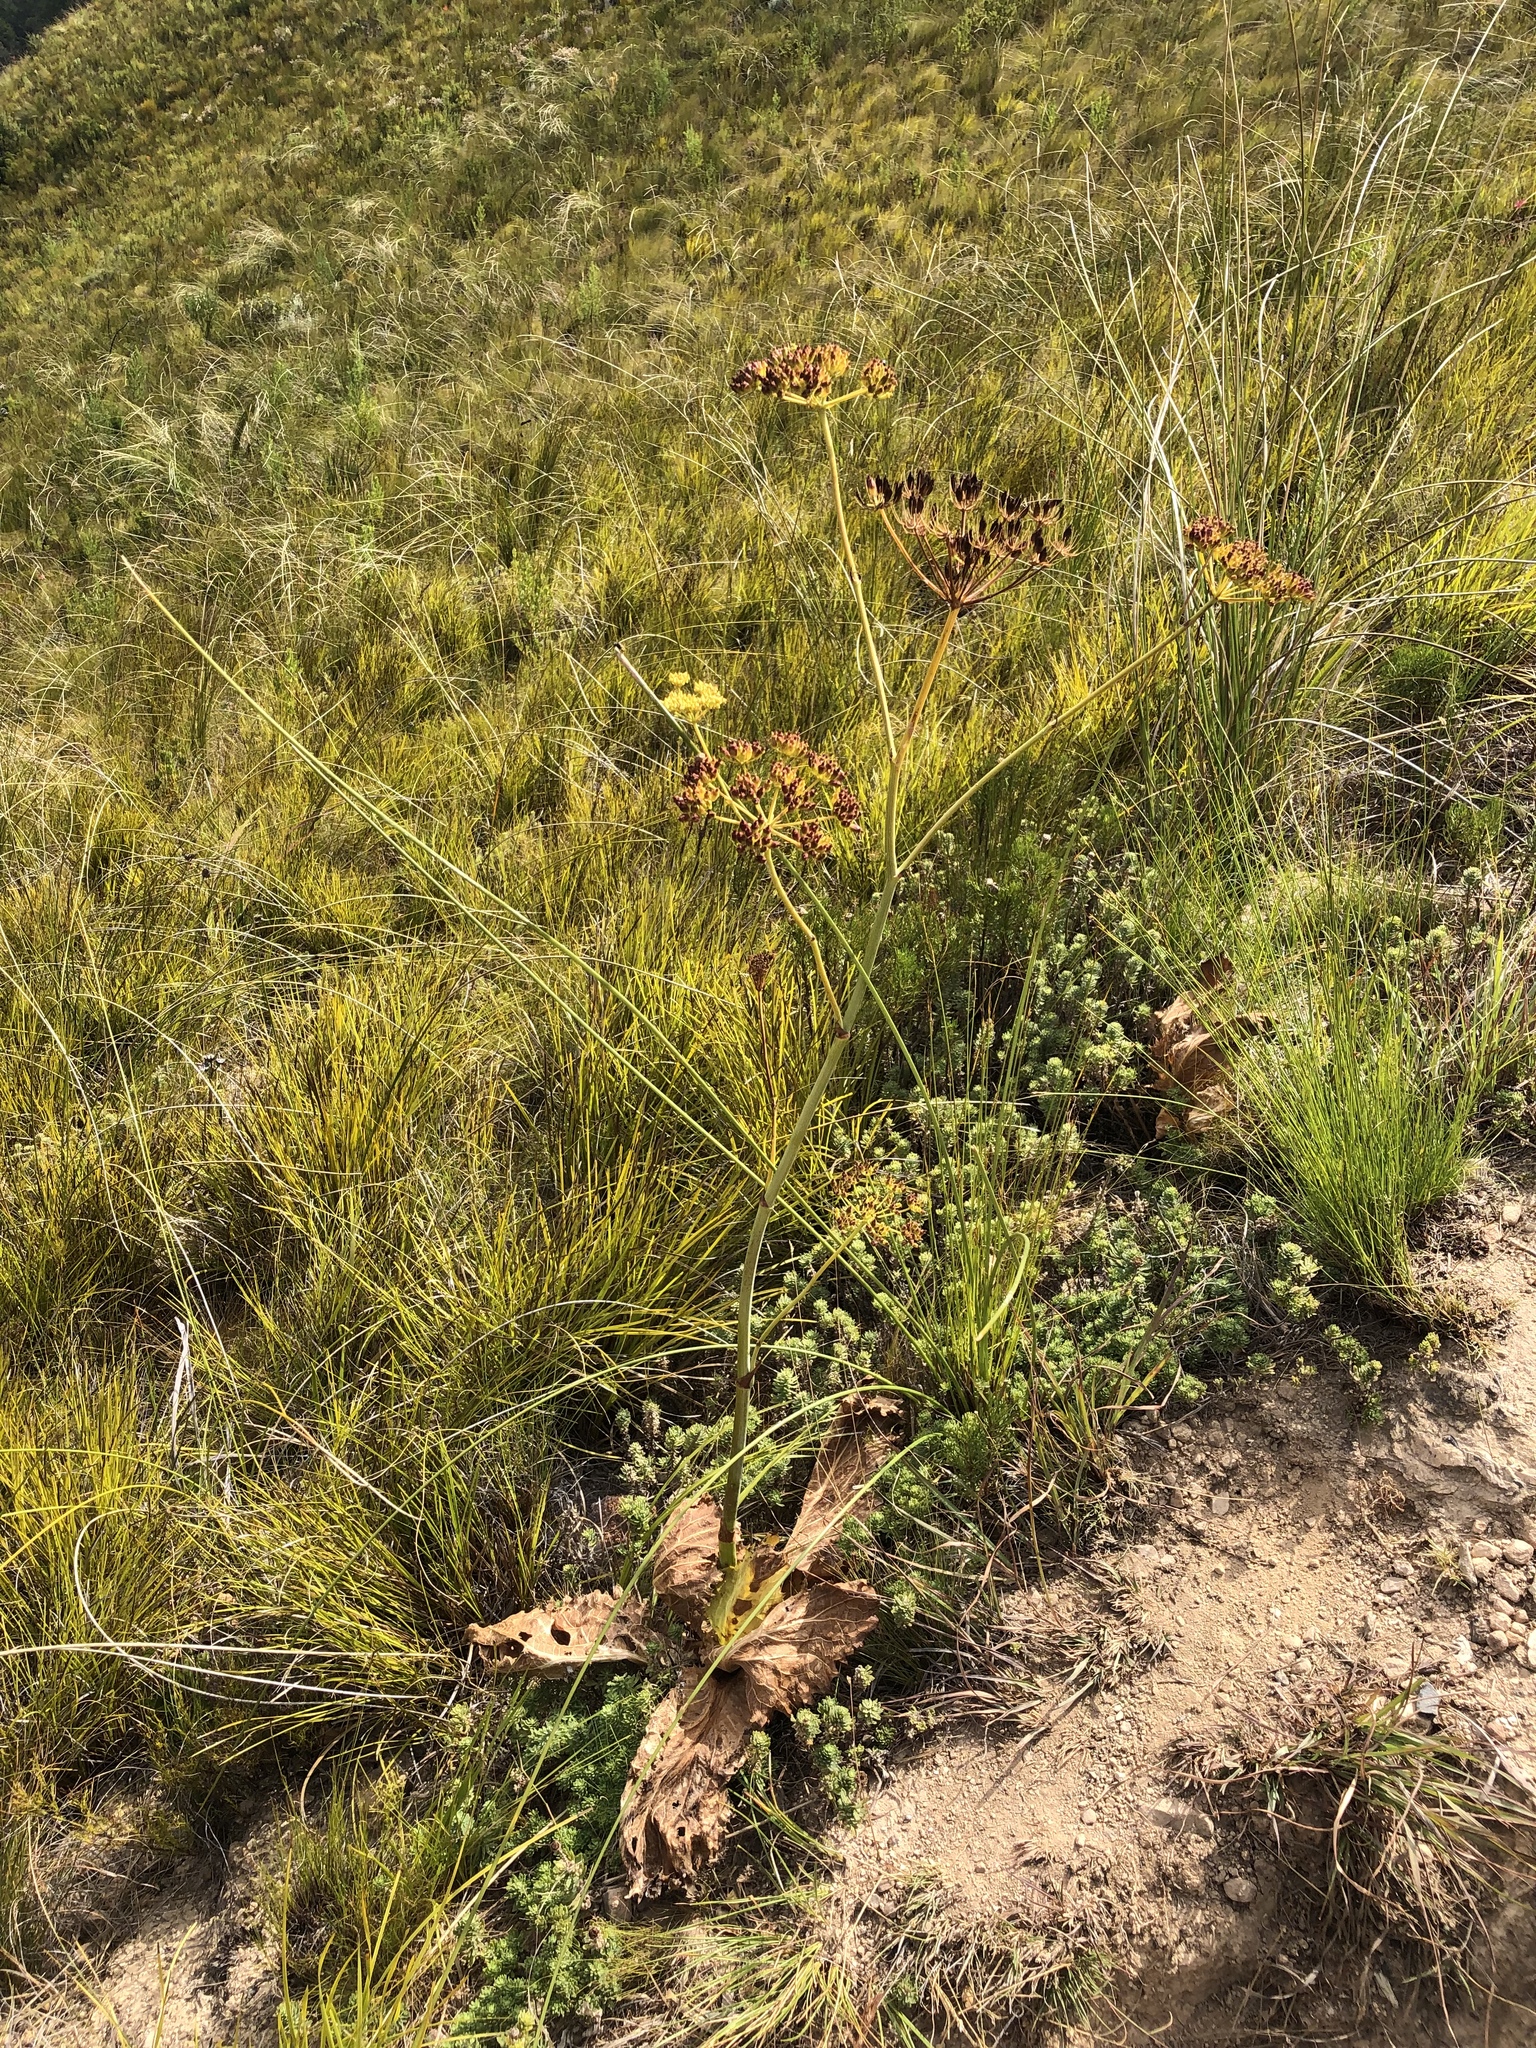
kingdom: Plantae
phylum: Tracheophyta
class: Magnoliopsida
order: Apiales
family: Apiaceae
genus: Lichtensteinia
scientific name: Lichtensteinia lacera
